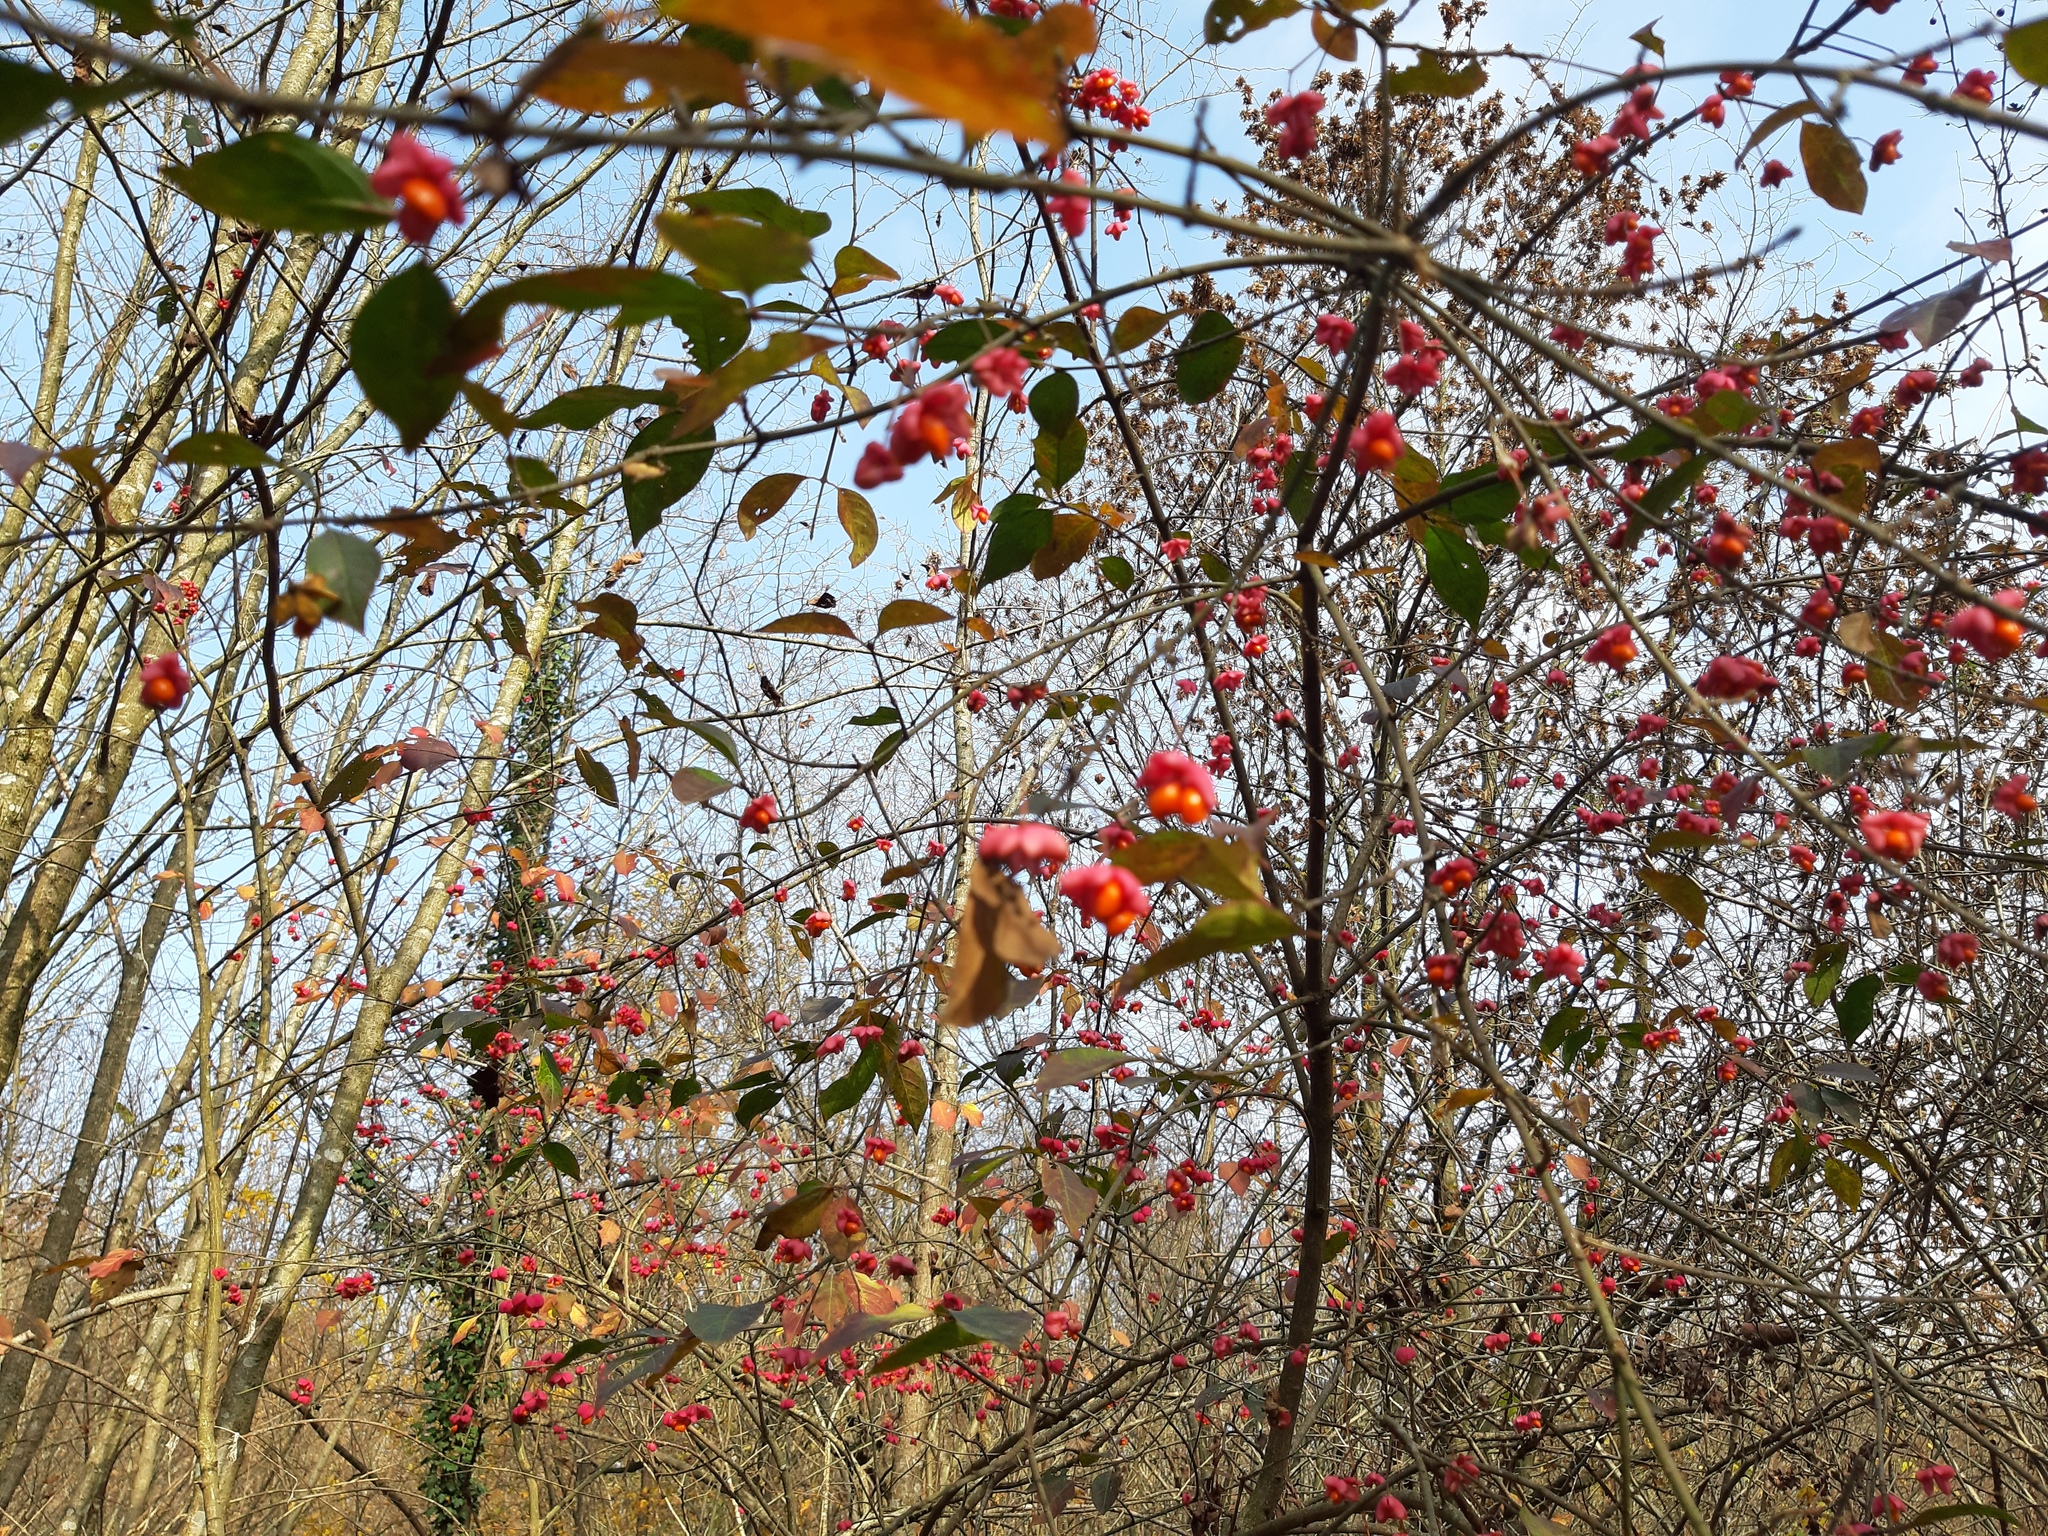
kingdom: Plantae
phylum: Tracheophyta
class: Magnoliopsida
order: Celastrales
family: Celastraceae
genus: Euonymus
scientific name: Euonymus europaeus
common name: Spindle
